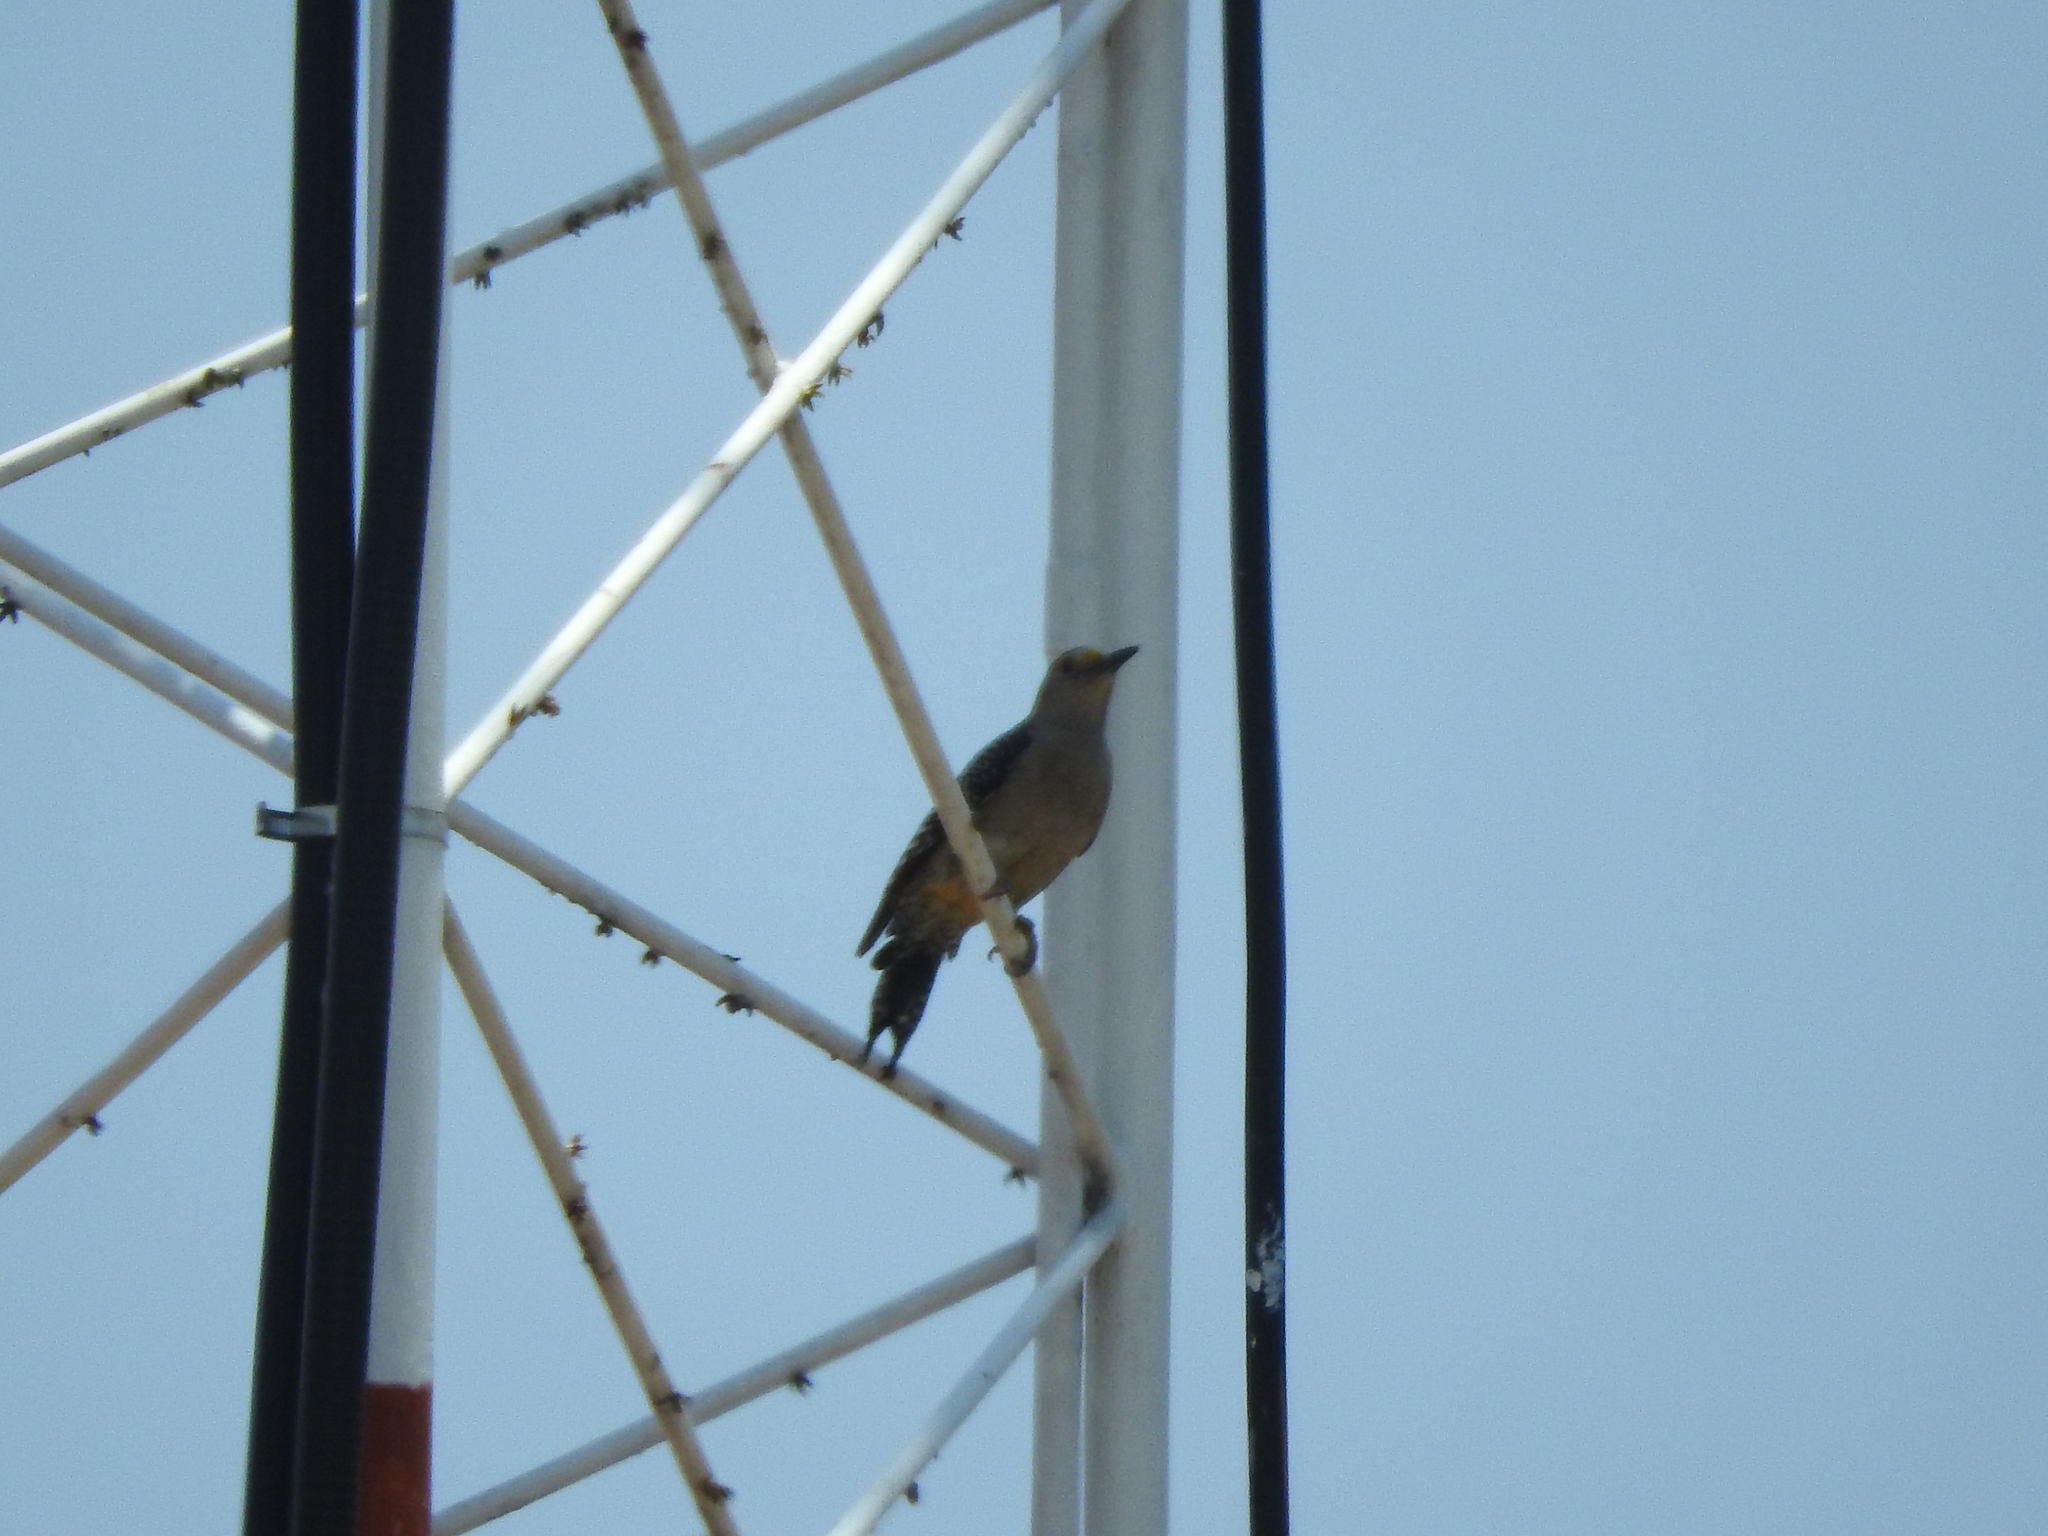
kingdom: Animalia
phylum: Chordata
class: Aves
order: Piciformes
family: Picidae
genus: Melanerpes
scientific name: Melanerpes aurifrons
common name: Golden-fronted woodpecker
